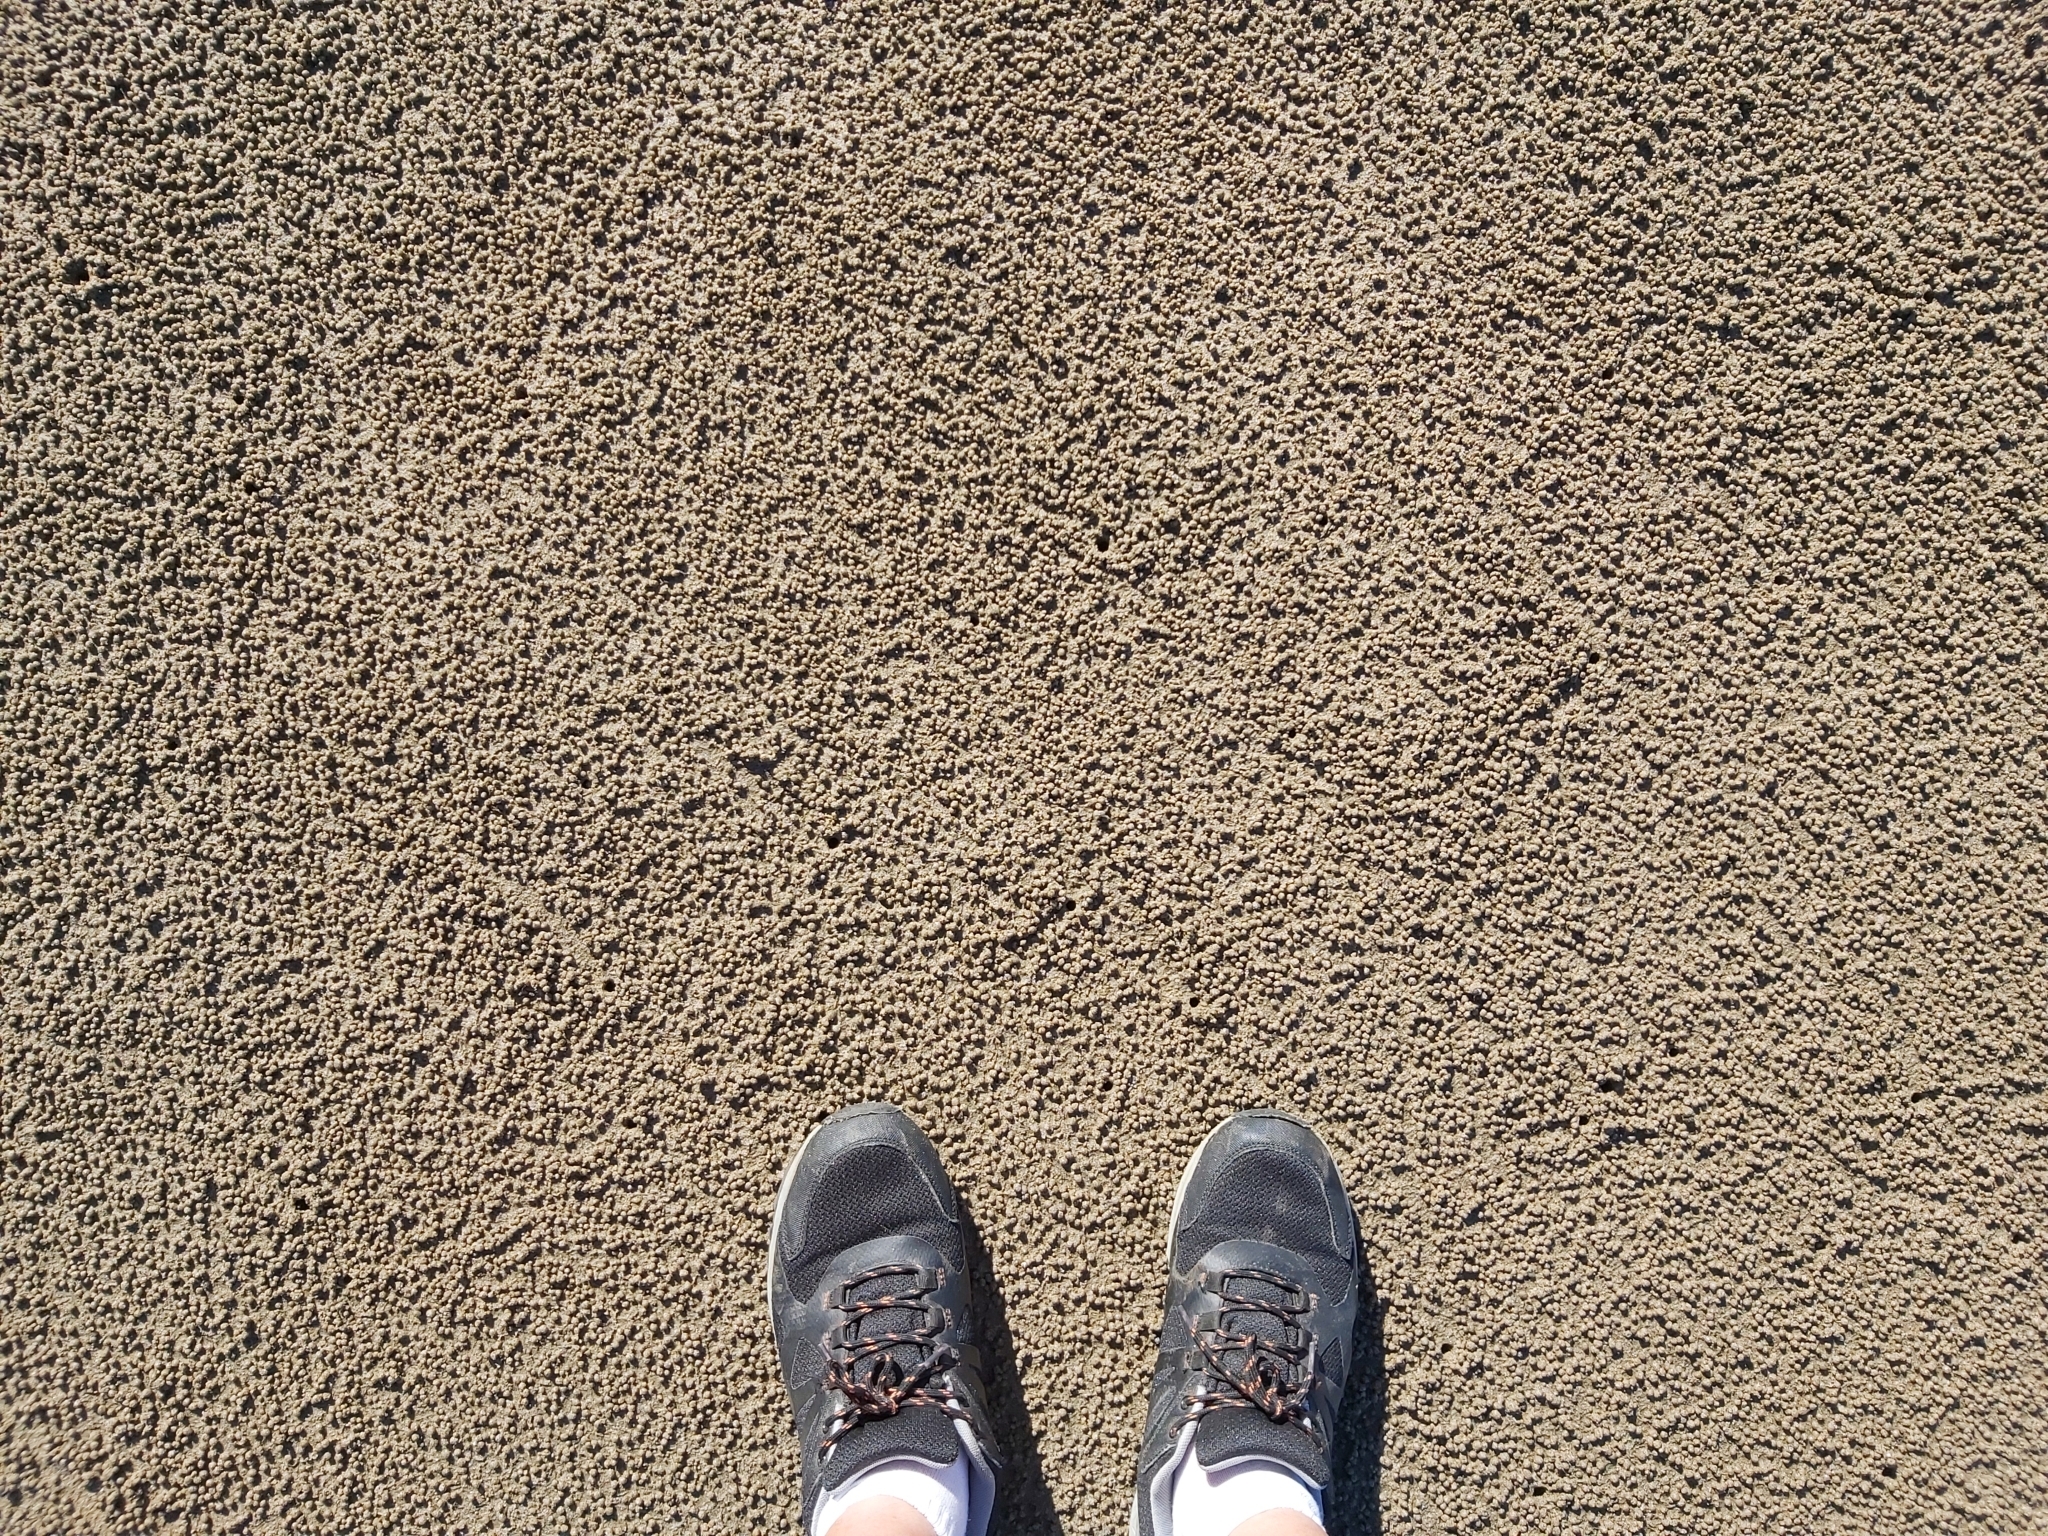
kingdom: Animalia
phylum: Arthropoda
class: Malacostraca
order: Decapoda
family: Dotillidae
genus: Scopimera
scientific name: Scopimera inflata
